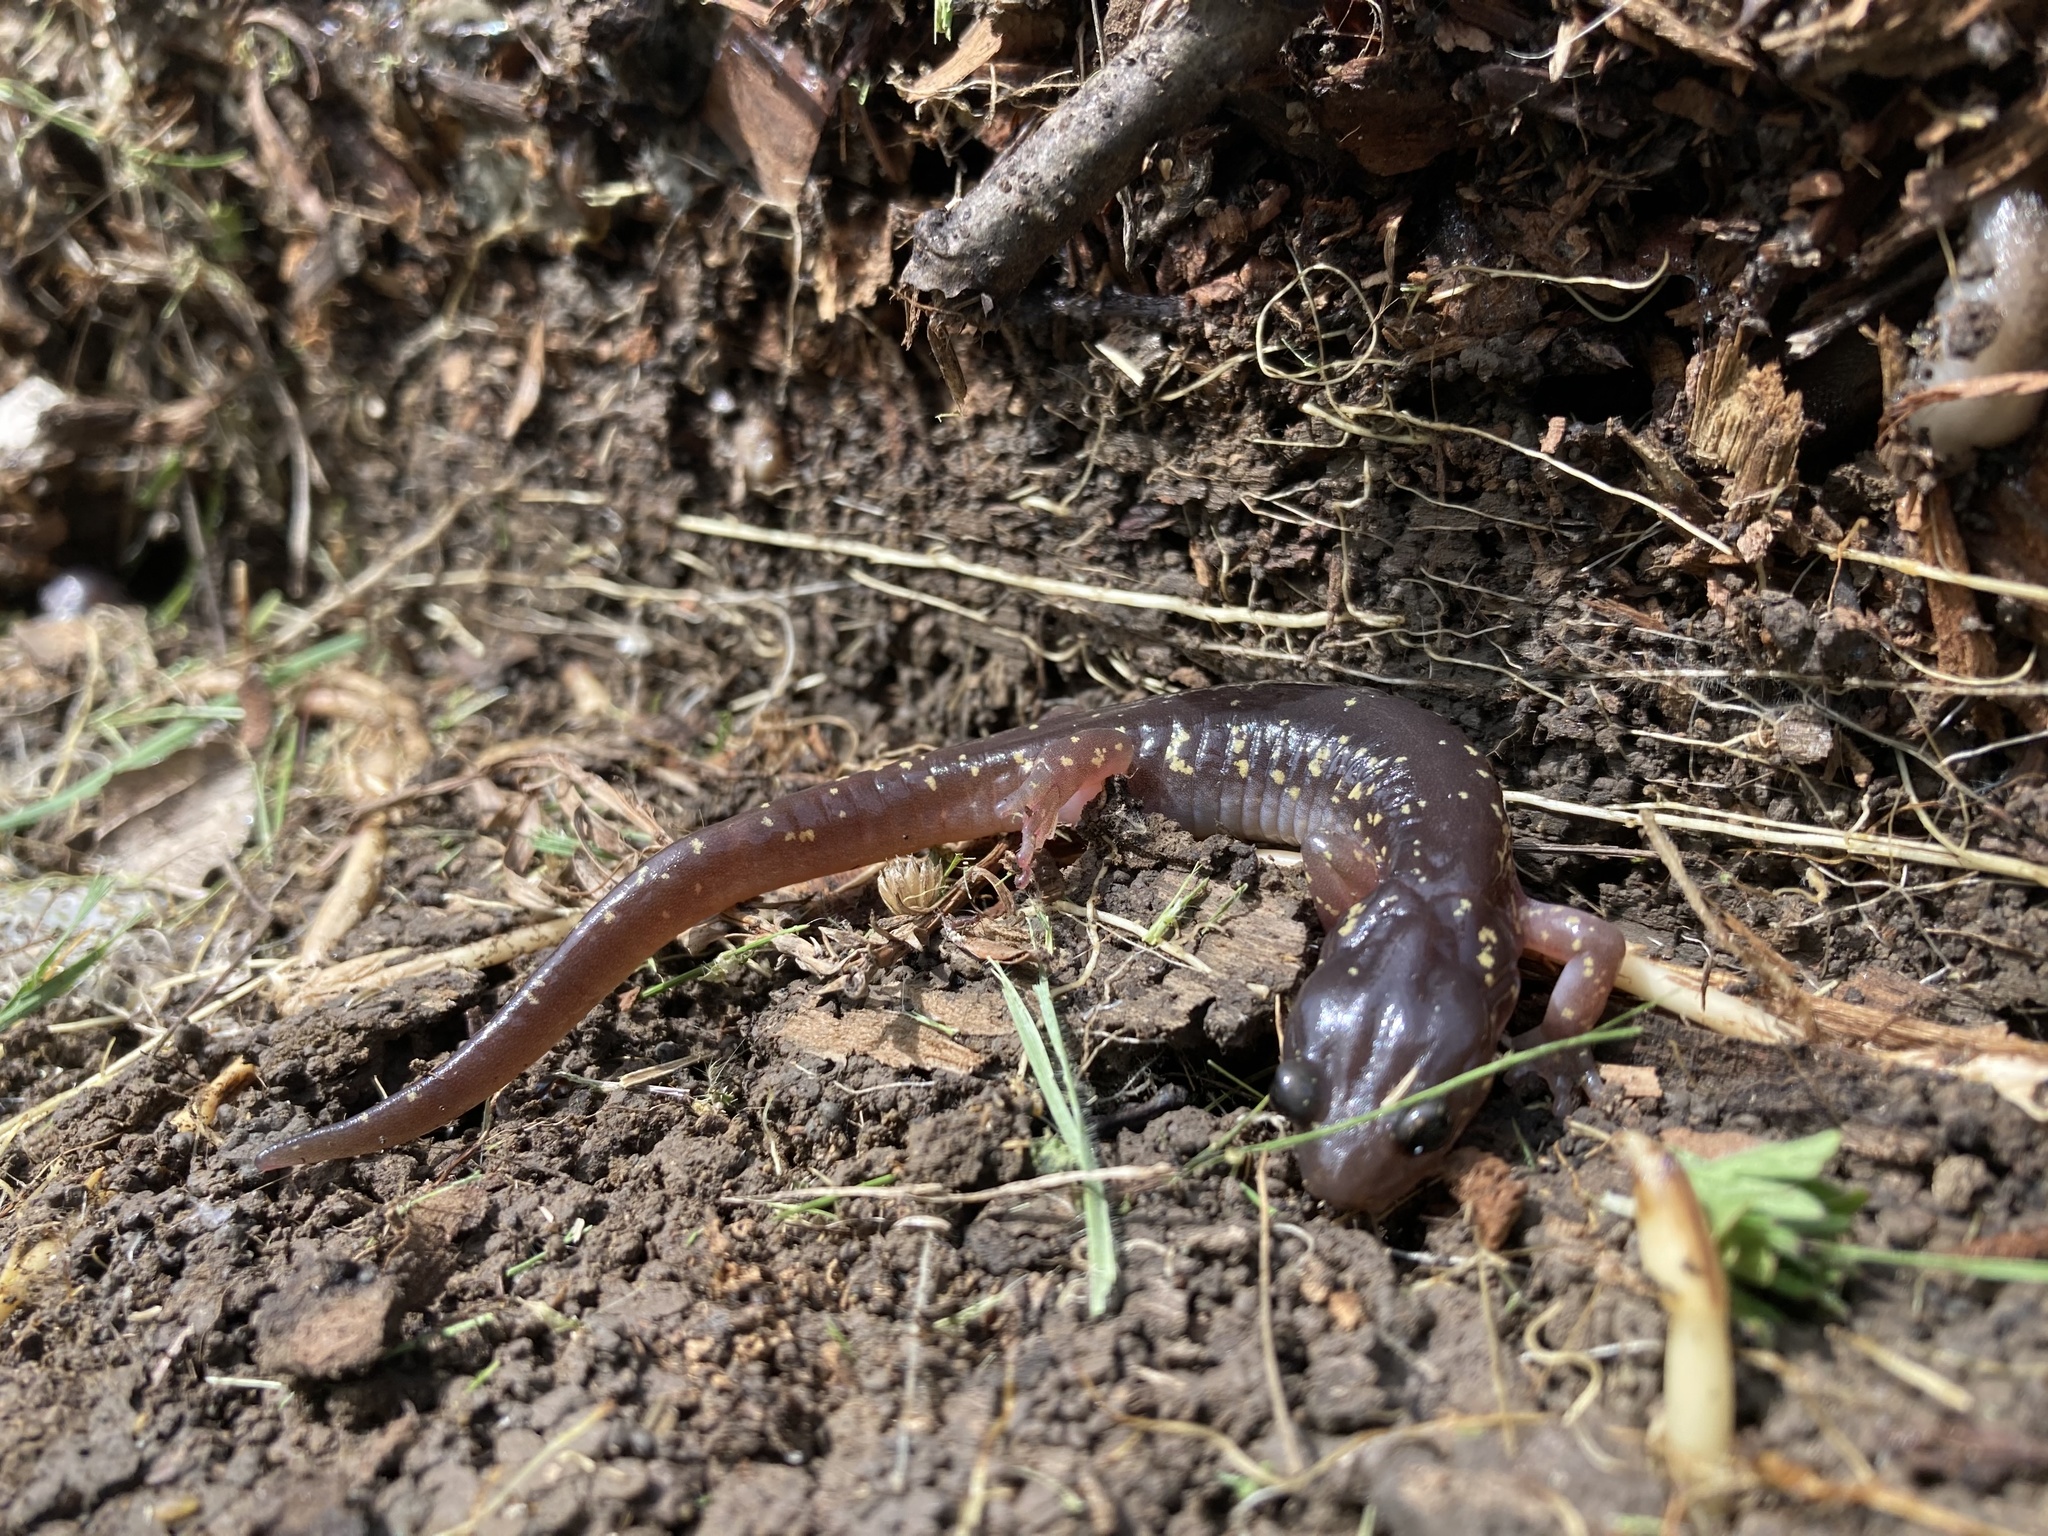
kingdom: Animalia
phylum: Chordata
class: Amphibia
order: Caudata
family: Plethodontidae
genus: Aneides
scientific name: Aneides lugubris
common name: Arboreal salamander
